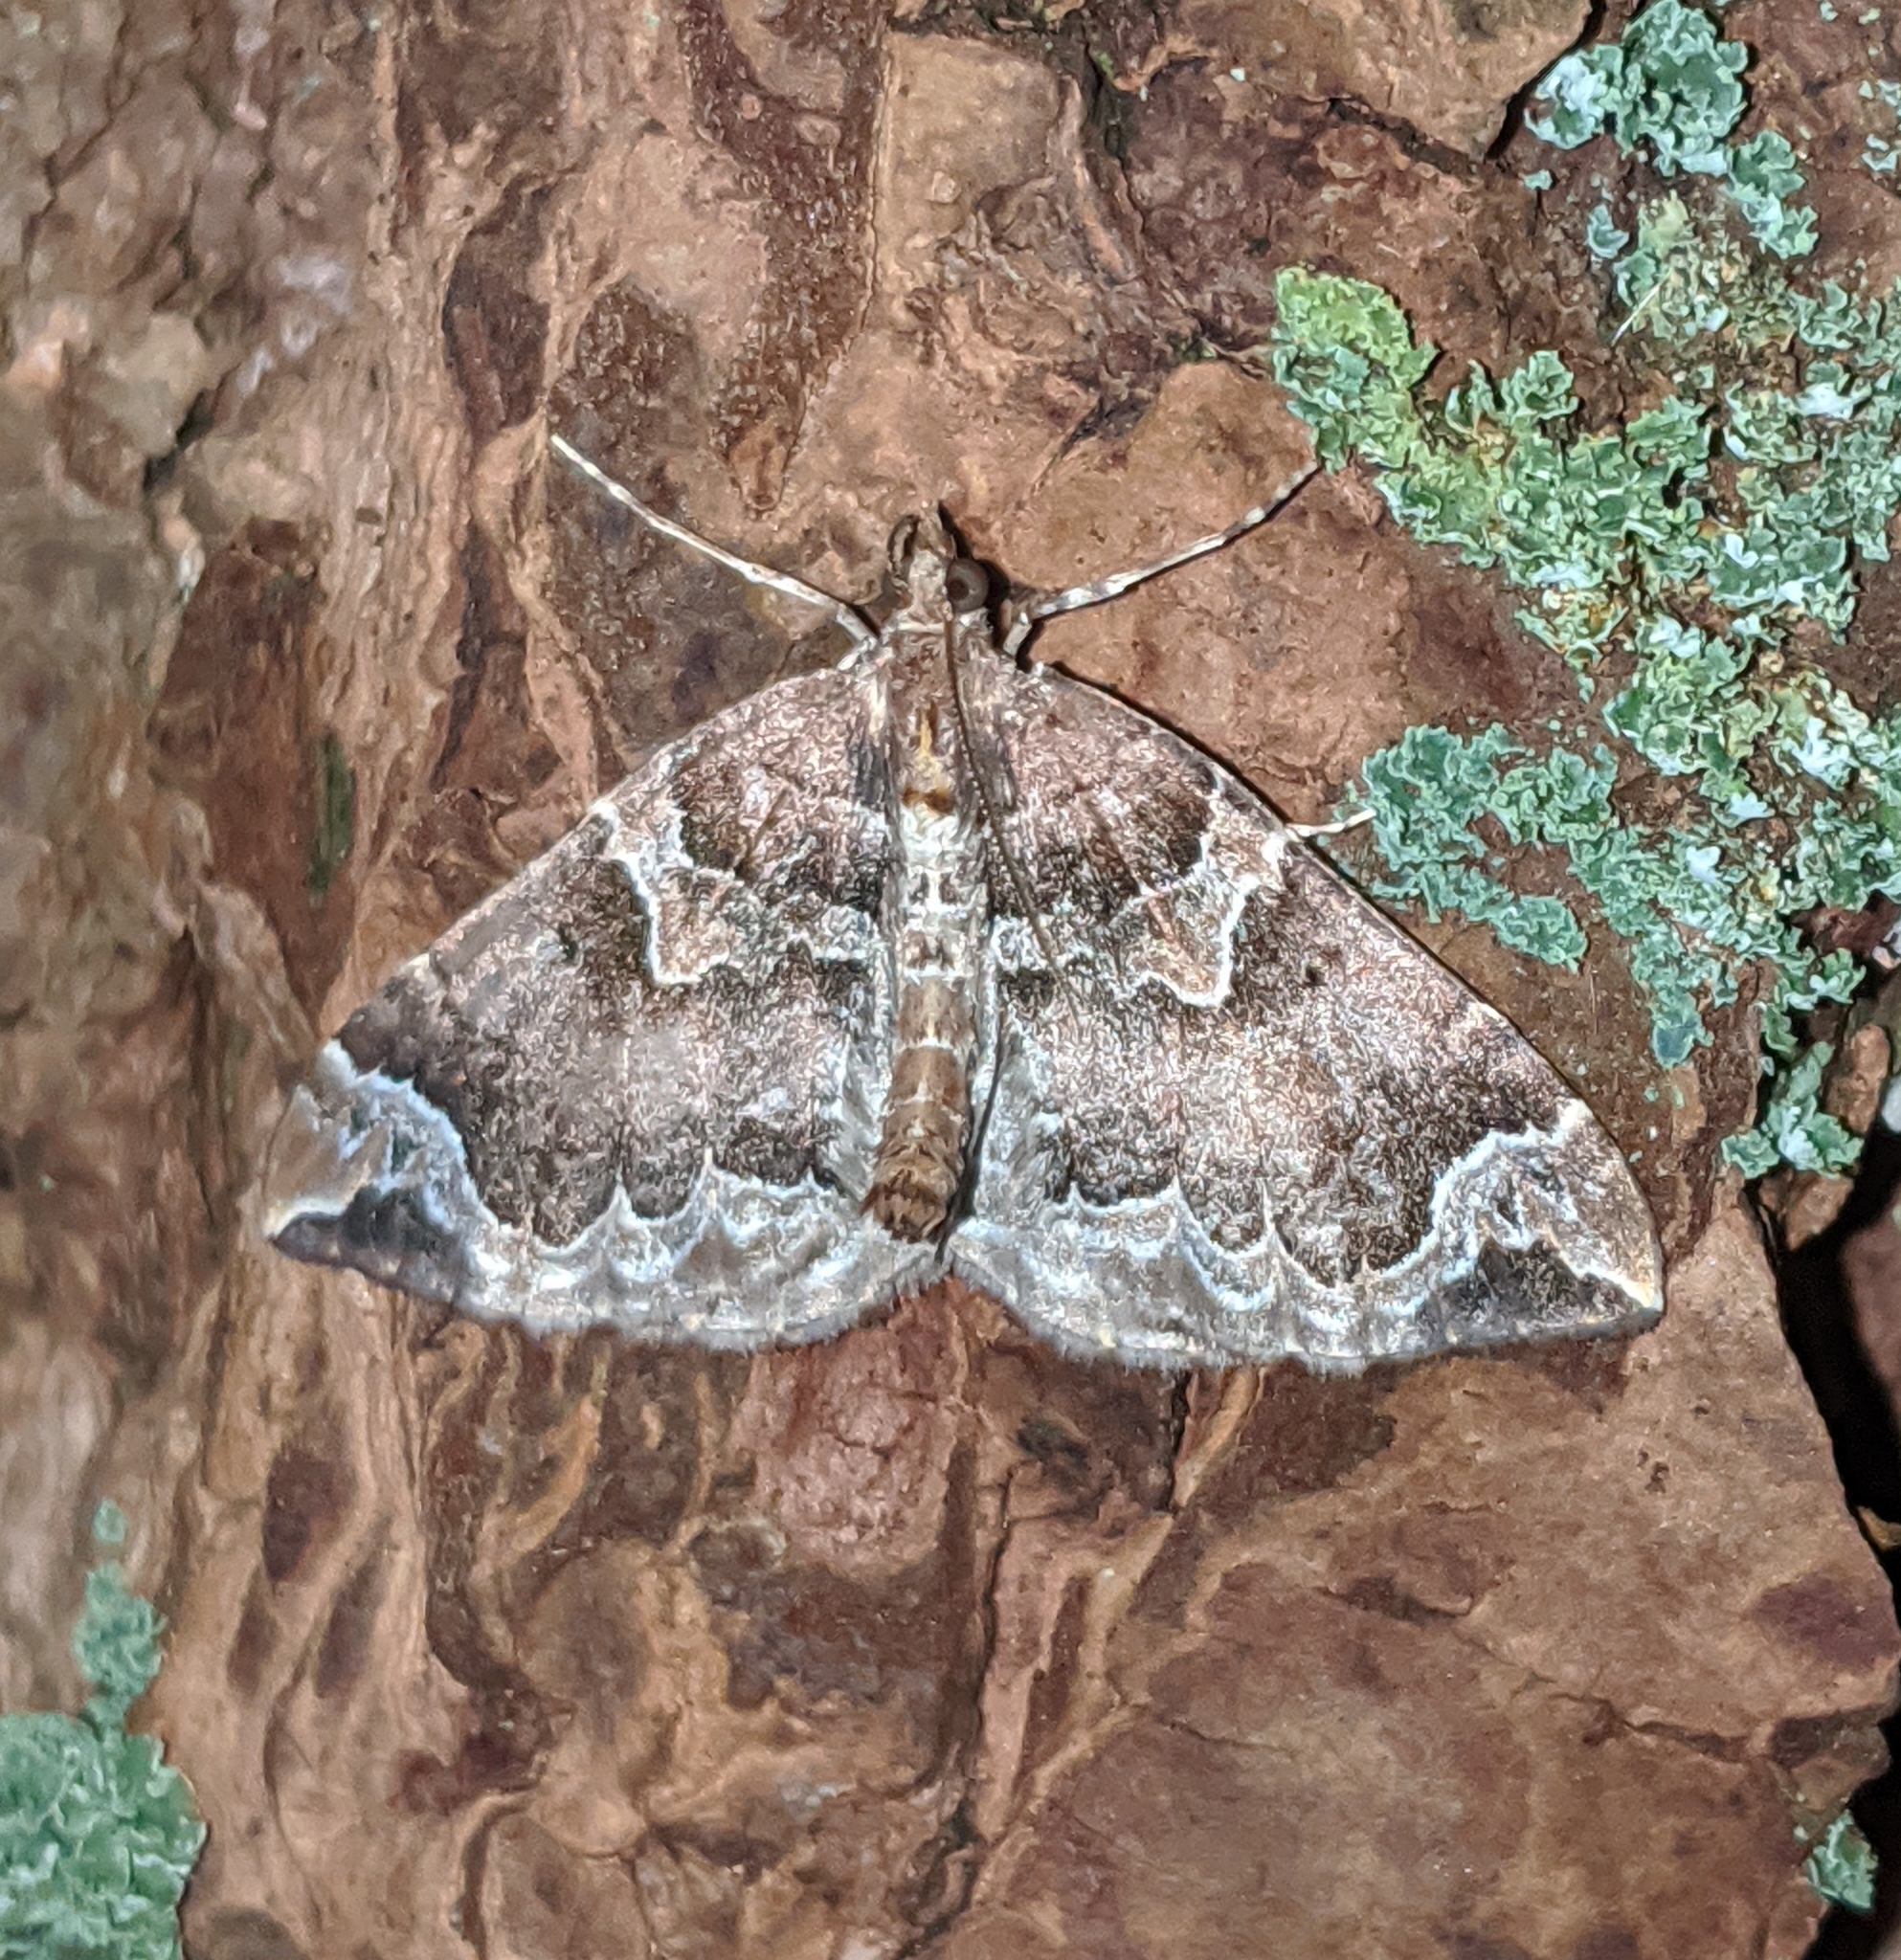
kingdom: Animalia
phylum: Arthropoda
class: Insecta
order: Lepidoptera
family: Geometridae
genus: Eulithis
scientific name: Eulithis xylina
